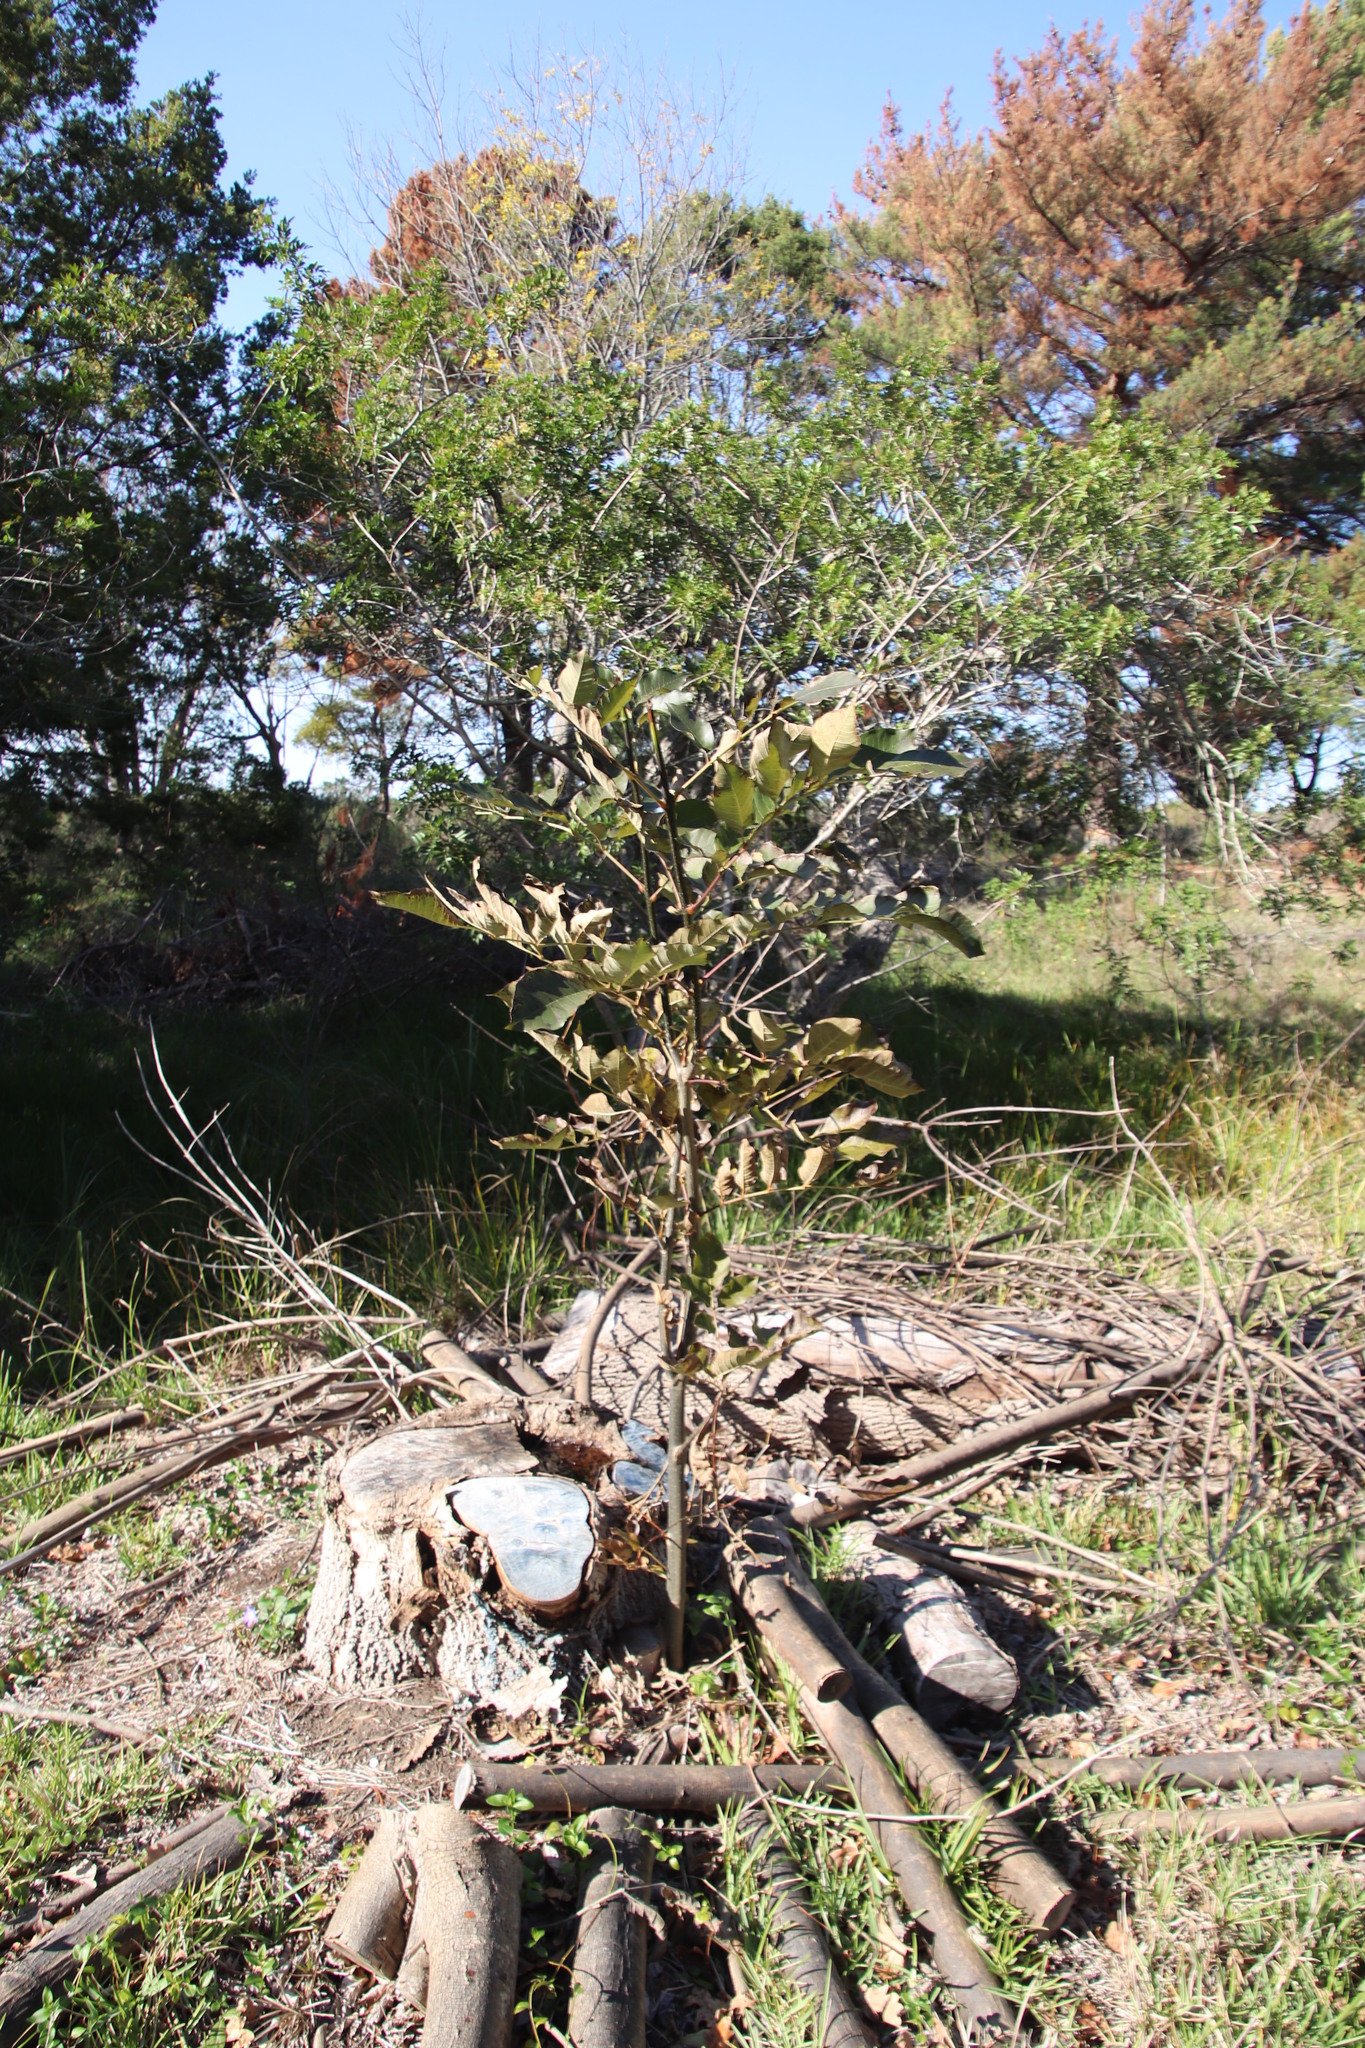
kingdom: Plantae
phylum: Tracheophyta
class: Magnoliopsida
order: Myrtales
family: Myrtaceae
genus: Psidium
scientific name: Psidium guajava
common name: Guava
